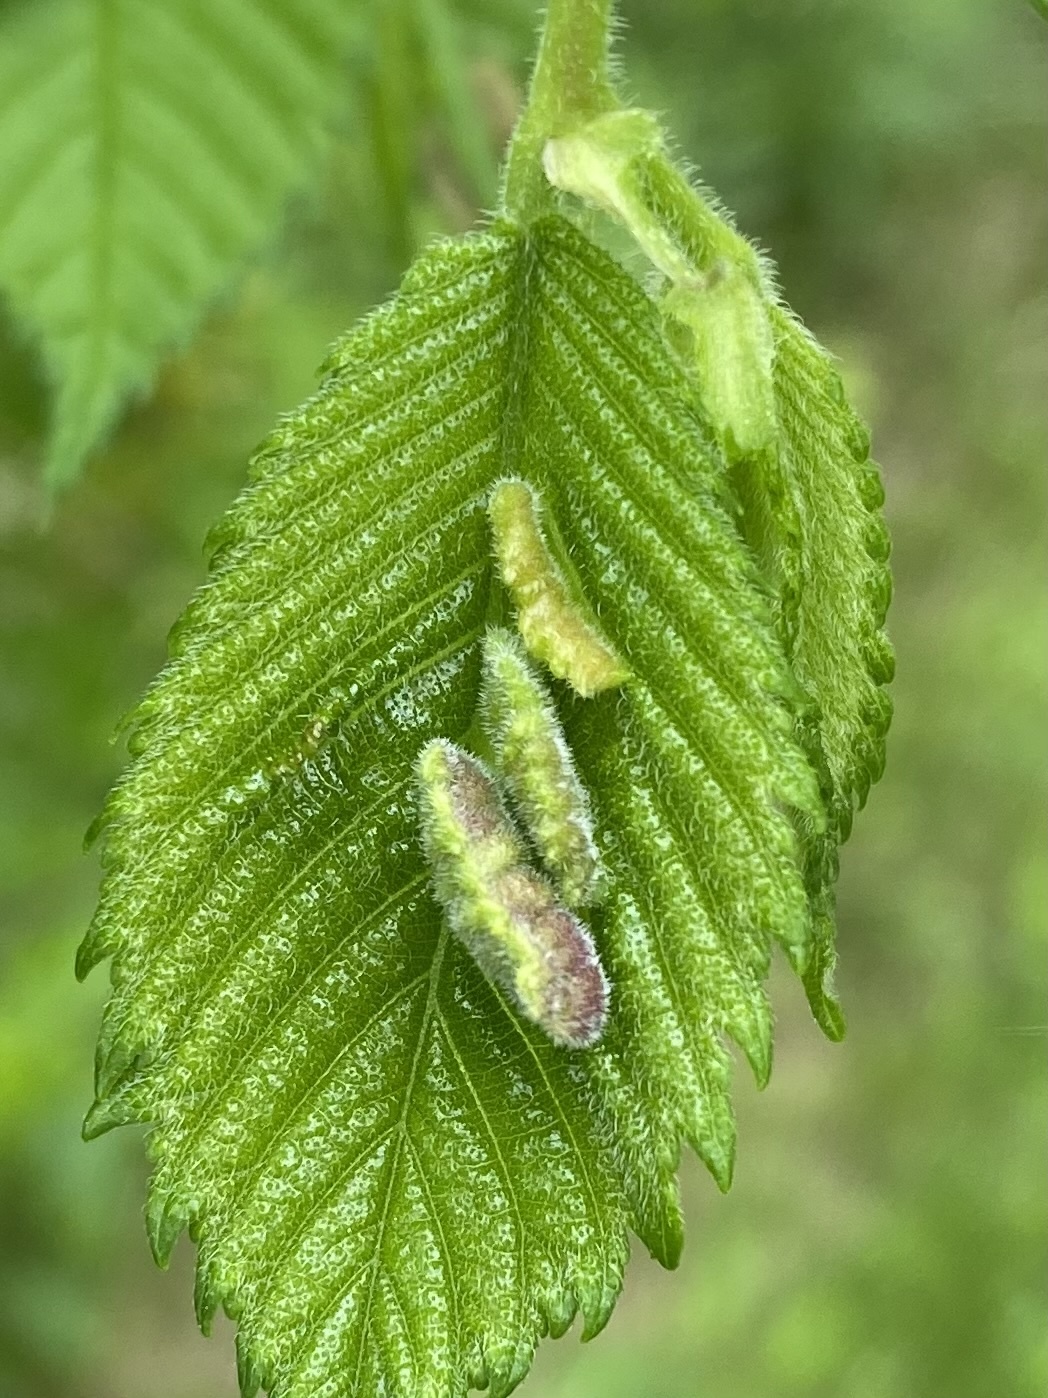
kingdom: Animalia
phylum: Arthropoda
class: Insecta
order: Hemiptera
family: Aphididae
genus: Colopha
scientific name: Colopha ulmicola
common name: Elm cockscombgall aphid
